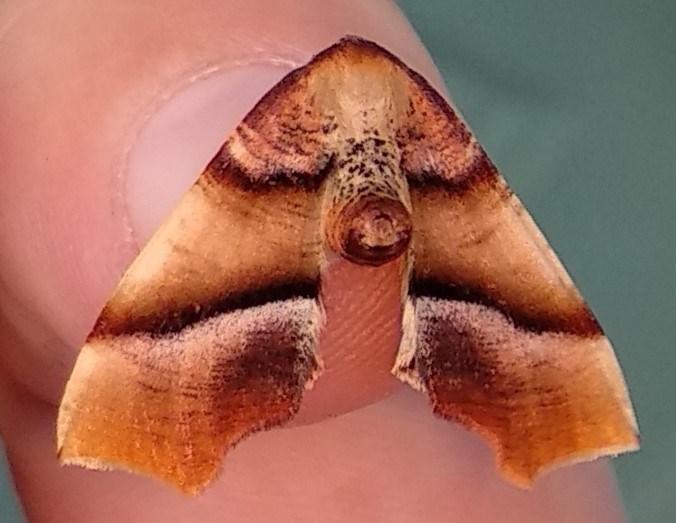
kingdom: Animalia
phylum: Arthropoda
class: Insecta
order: Lepidoptera
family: Geometridae
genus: Plagodis
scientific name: Plagodis phlogosaria
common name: Straight-lined plagodis
